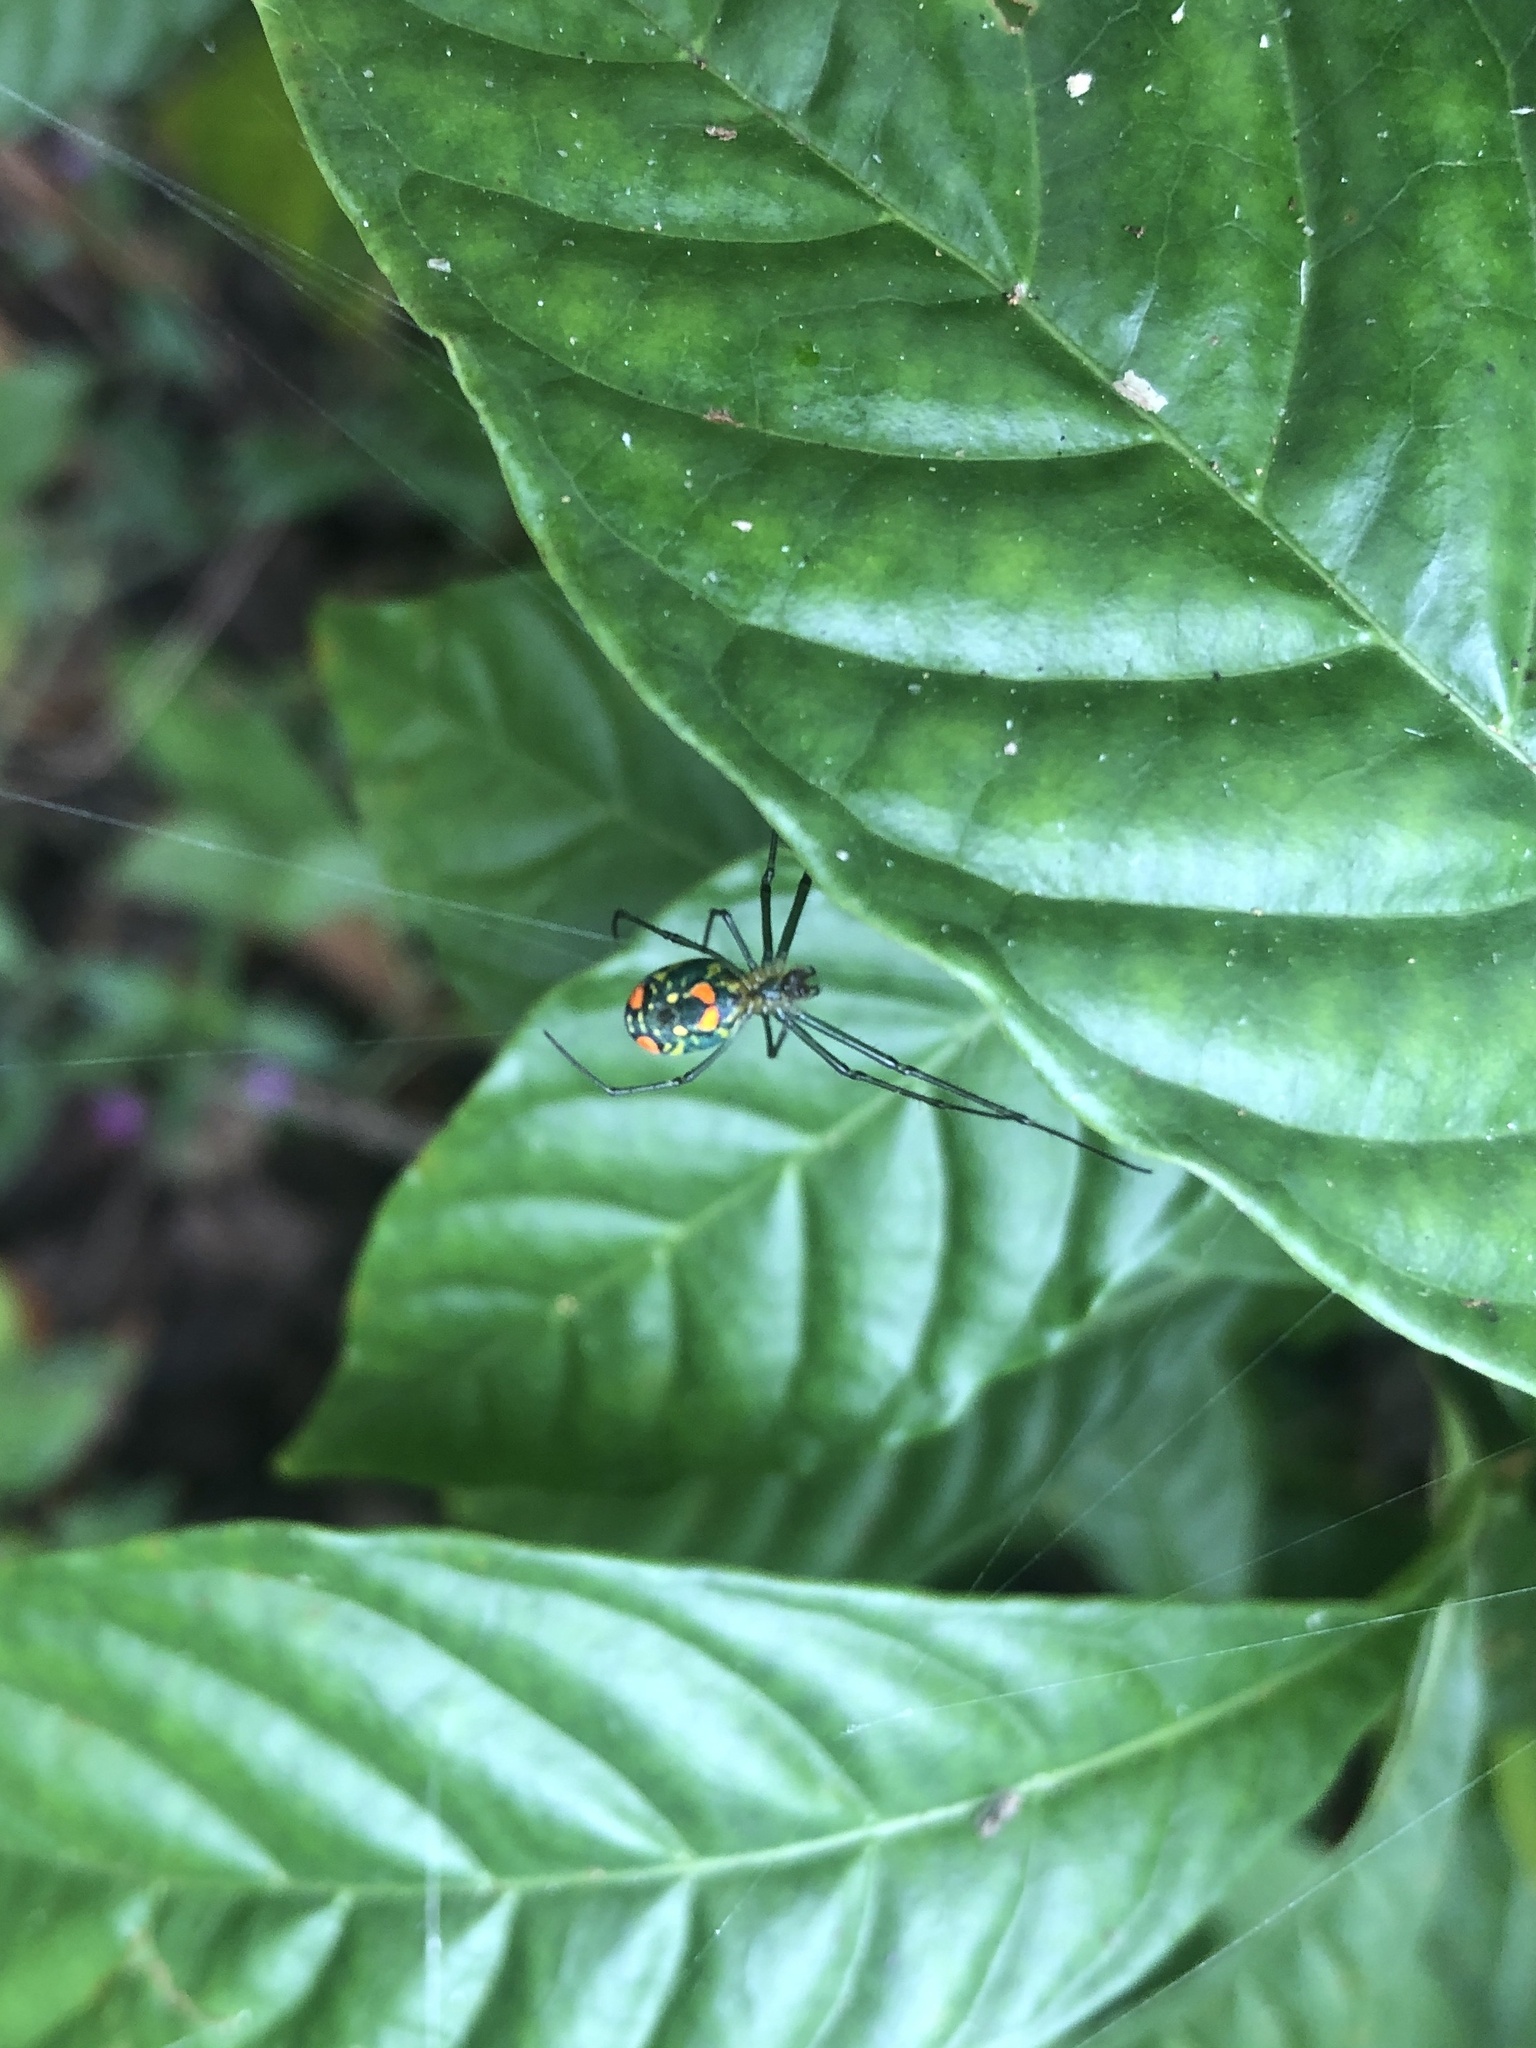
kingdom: Animalia
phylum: Arthropoda
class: Arachnida
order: Araneae
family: Tetragnathidae
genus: Leucauge
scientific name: Leucauge argyrobapta
